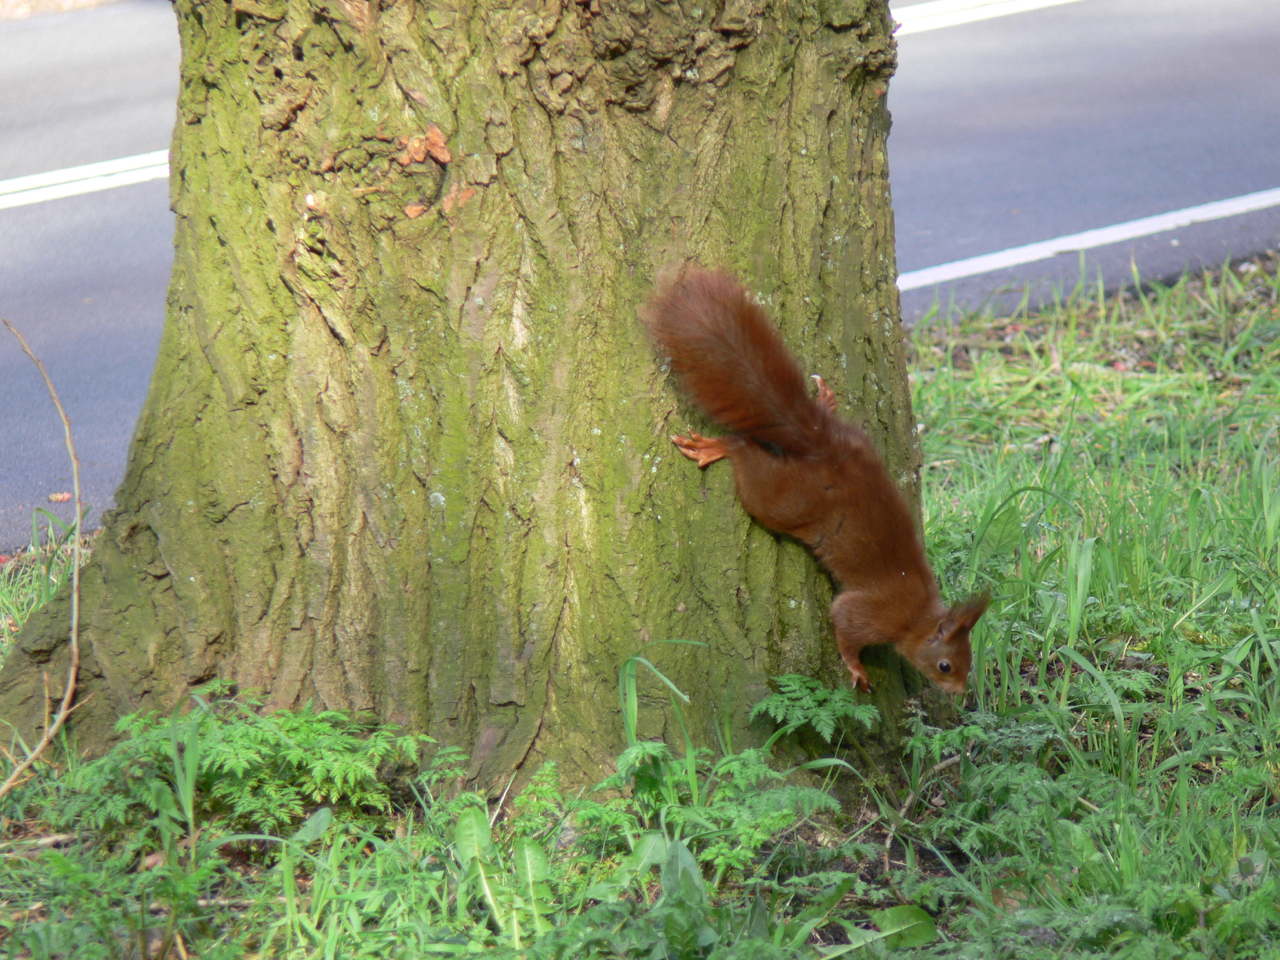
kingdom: Animalia
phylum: Chordata
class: Mammalia
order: Rodentia
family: Sciuridae
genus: Sciurus
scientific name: Sciurus vulgaris
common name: Eurasian red squirrel
